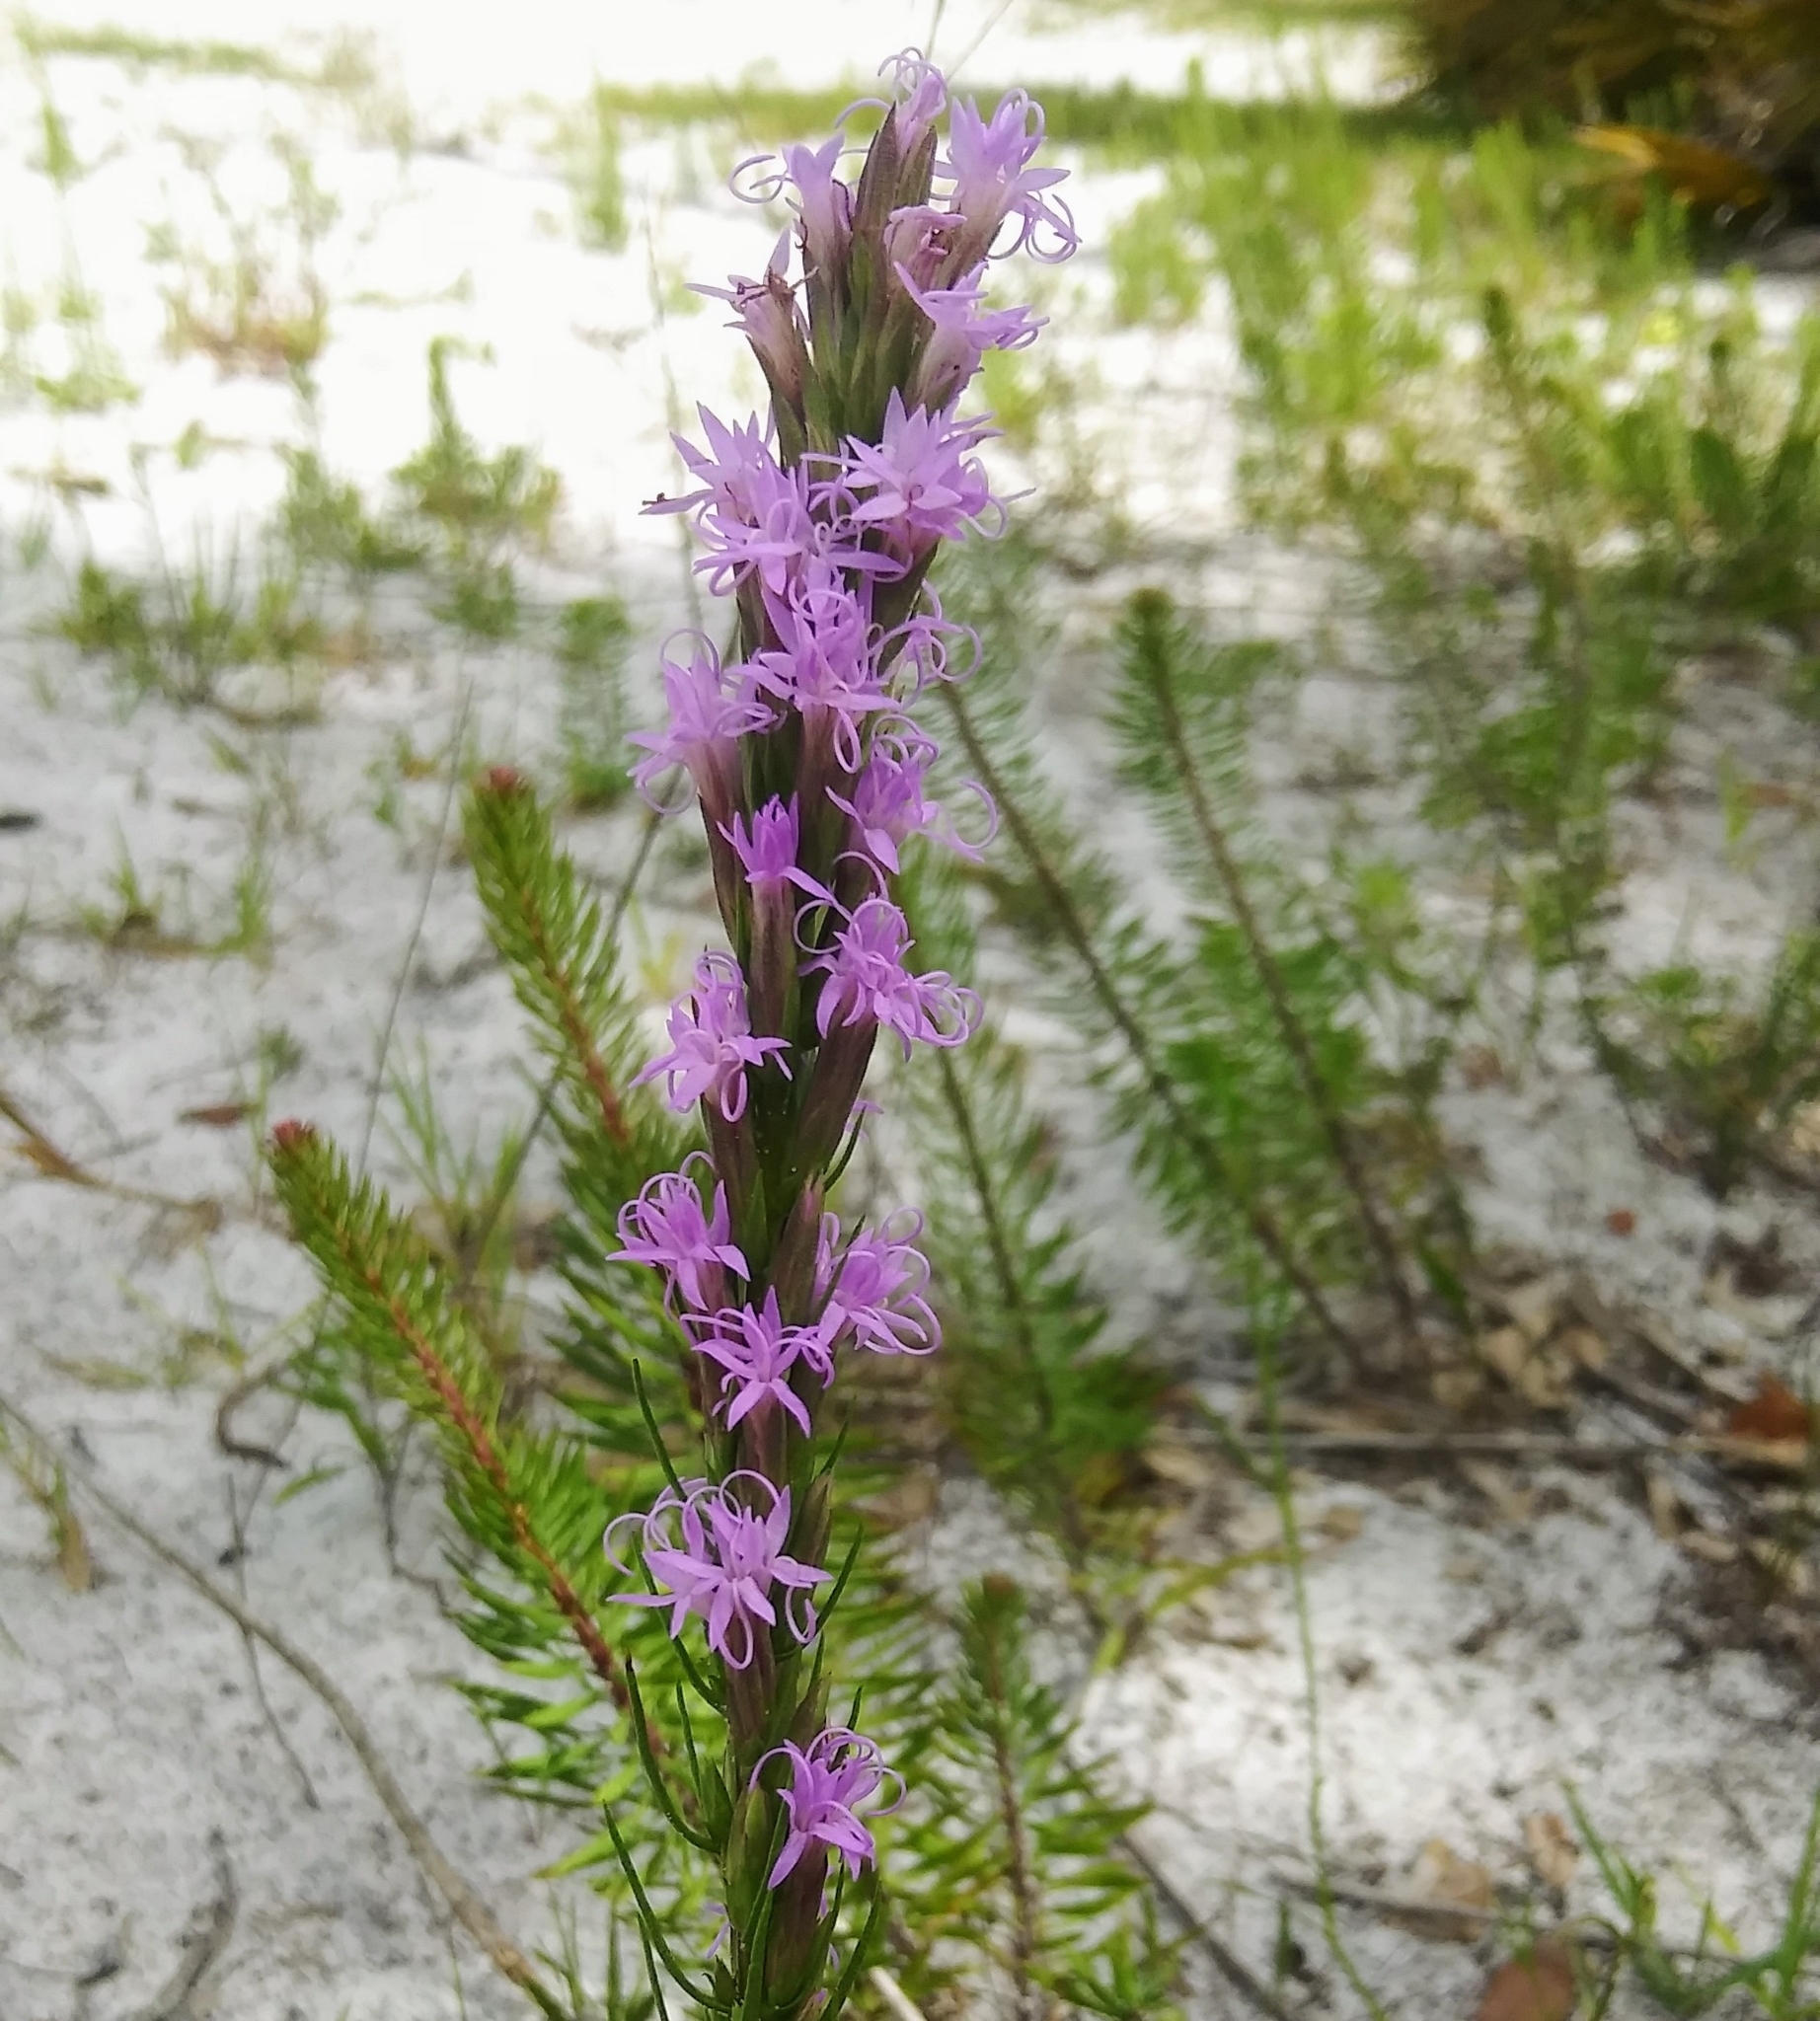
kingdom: Plantae
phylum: Tracheophyta
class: Magnoliopsida
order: Asterales
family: Asteraceae
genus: Liatris
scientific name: Liatris chapmanii
